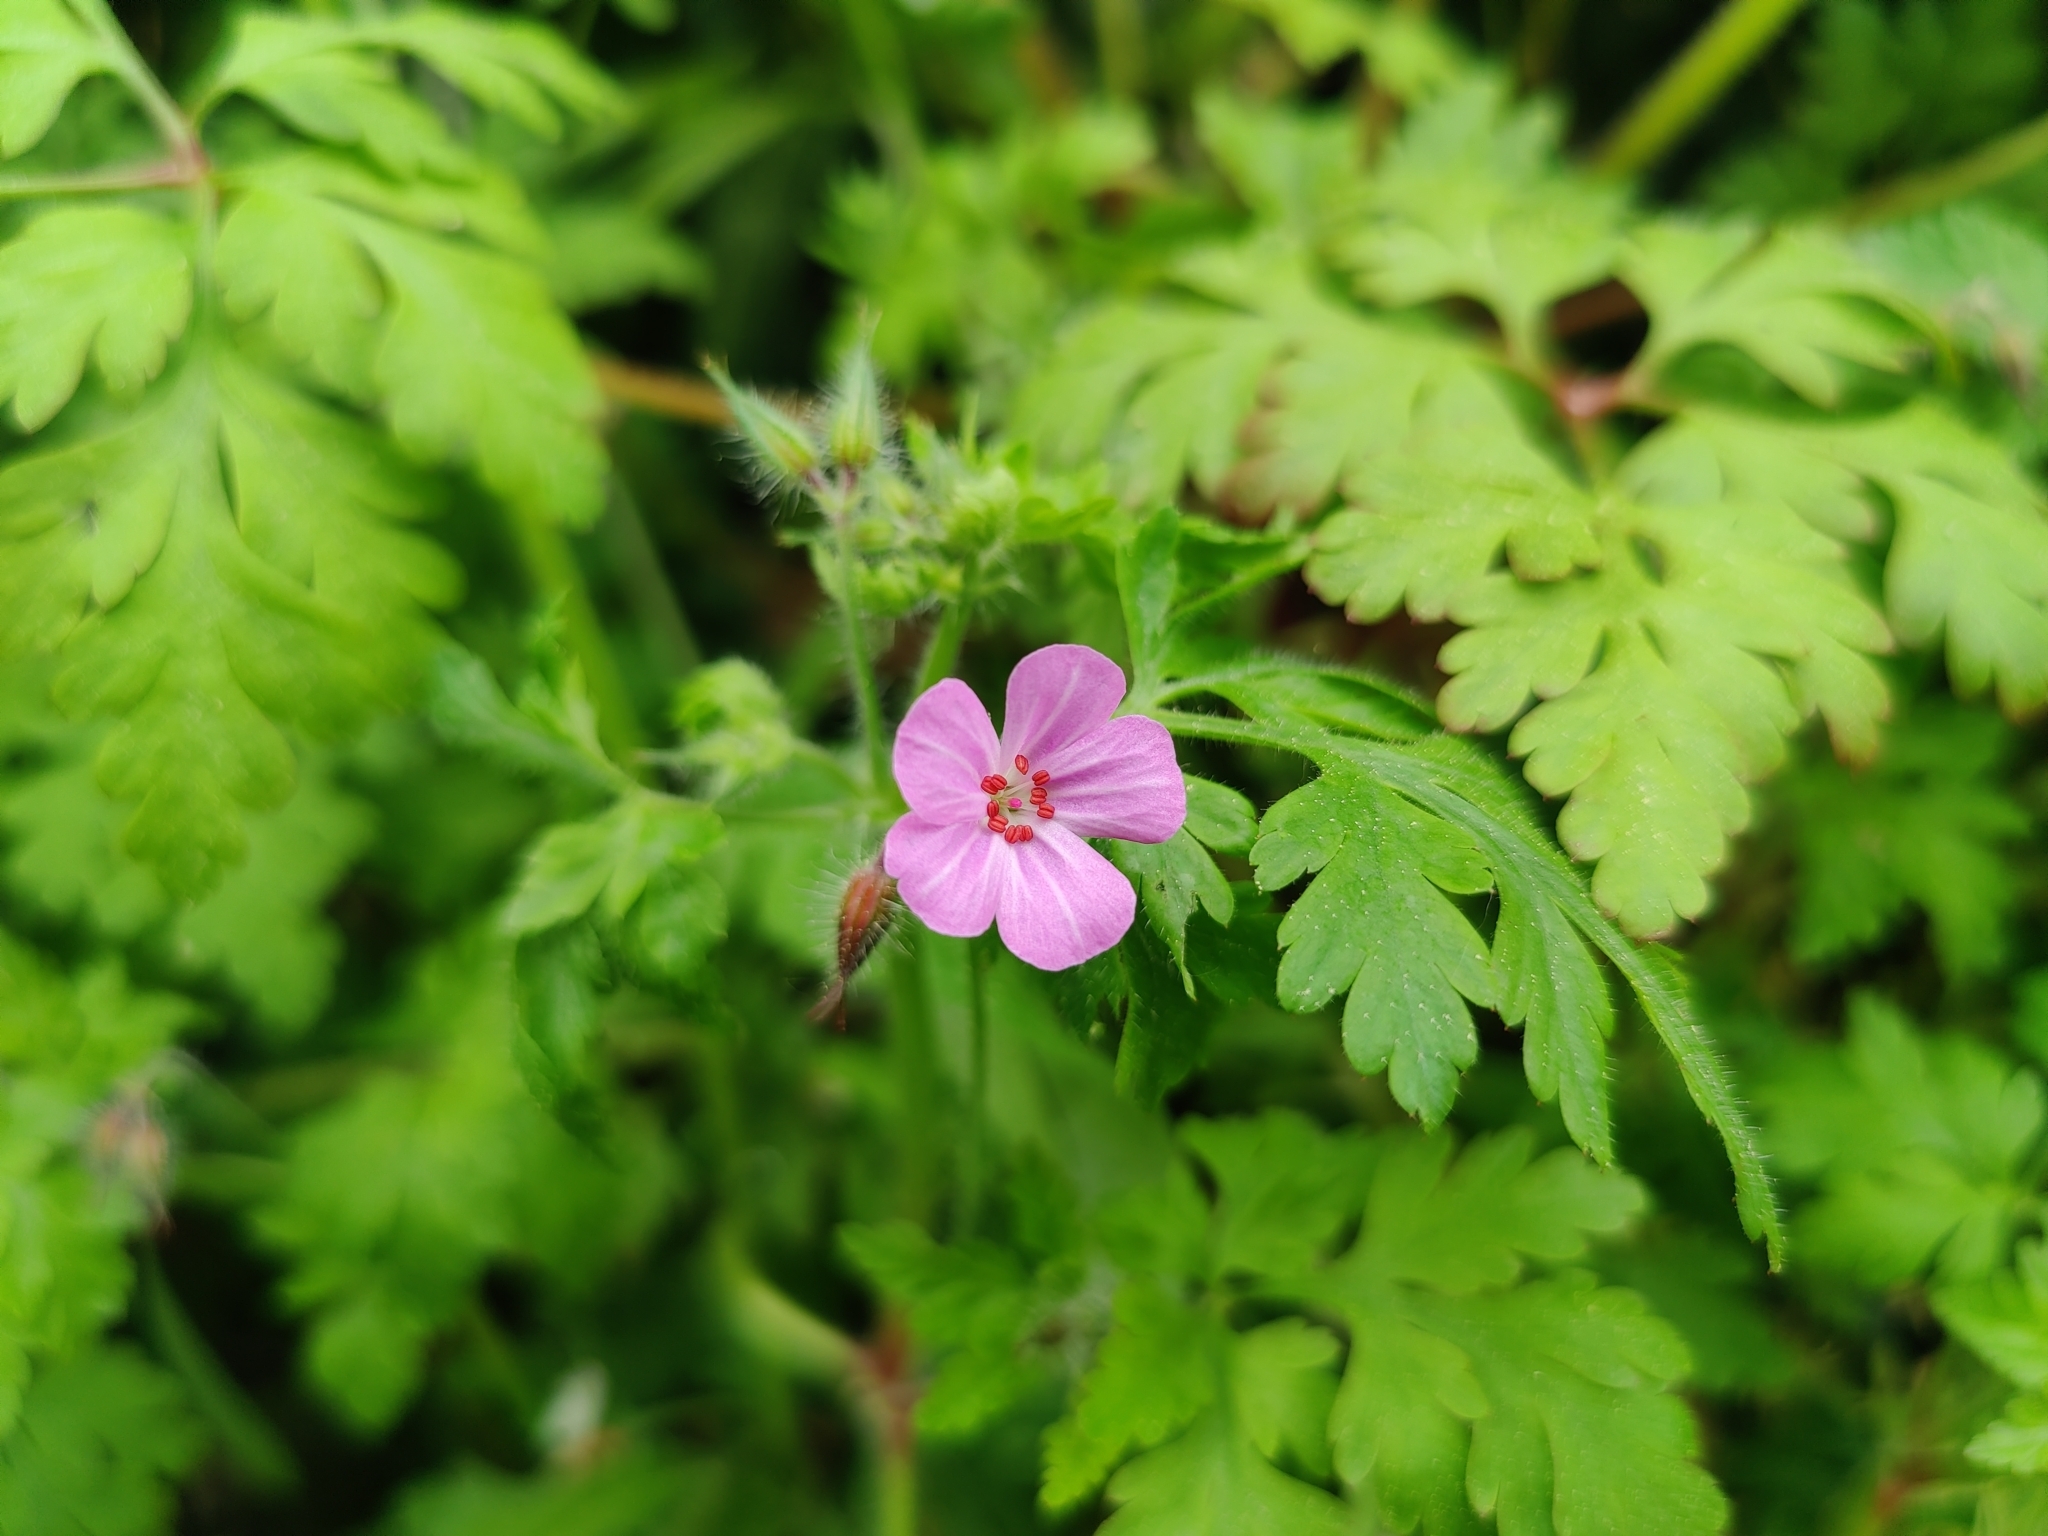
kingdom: Plantae
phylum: Tracheophyta
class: Magnoliopsida
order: Geraniales
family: Geraniaceae
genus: Geranium
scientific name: Geranium robertianum
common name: Herb-robert
